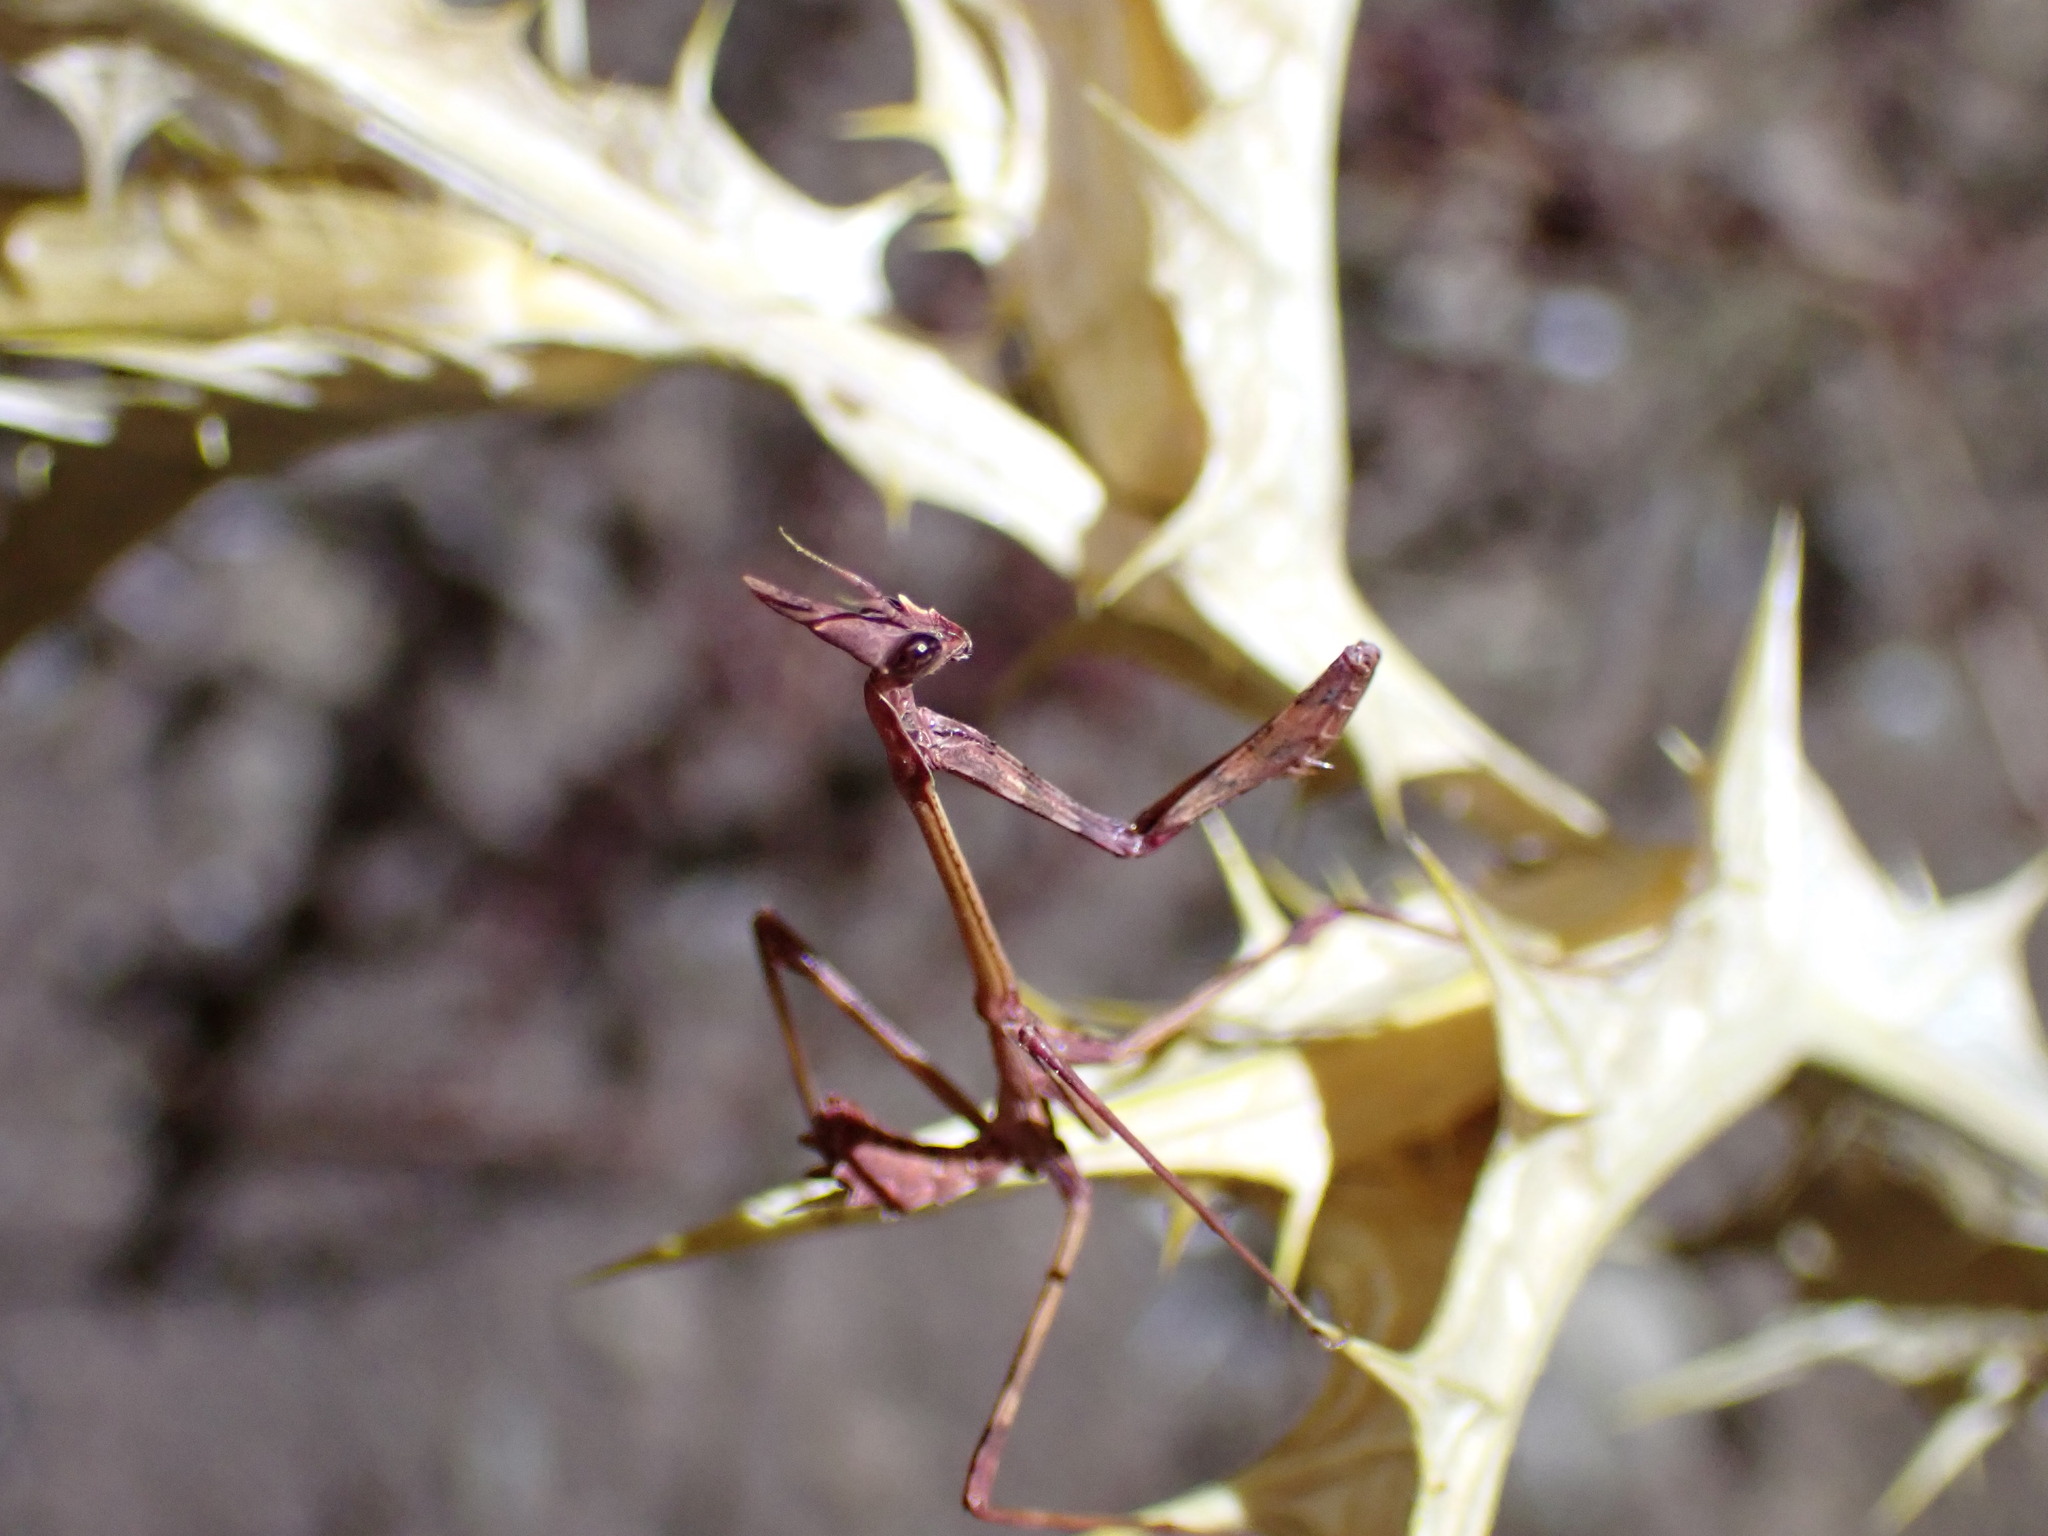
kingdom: Animalia
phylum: Arthropoda
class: Insecta
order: Mantodea
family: Empusidae
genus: Empusa
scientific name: Empusa pennata
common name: Conehead mantis
